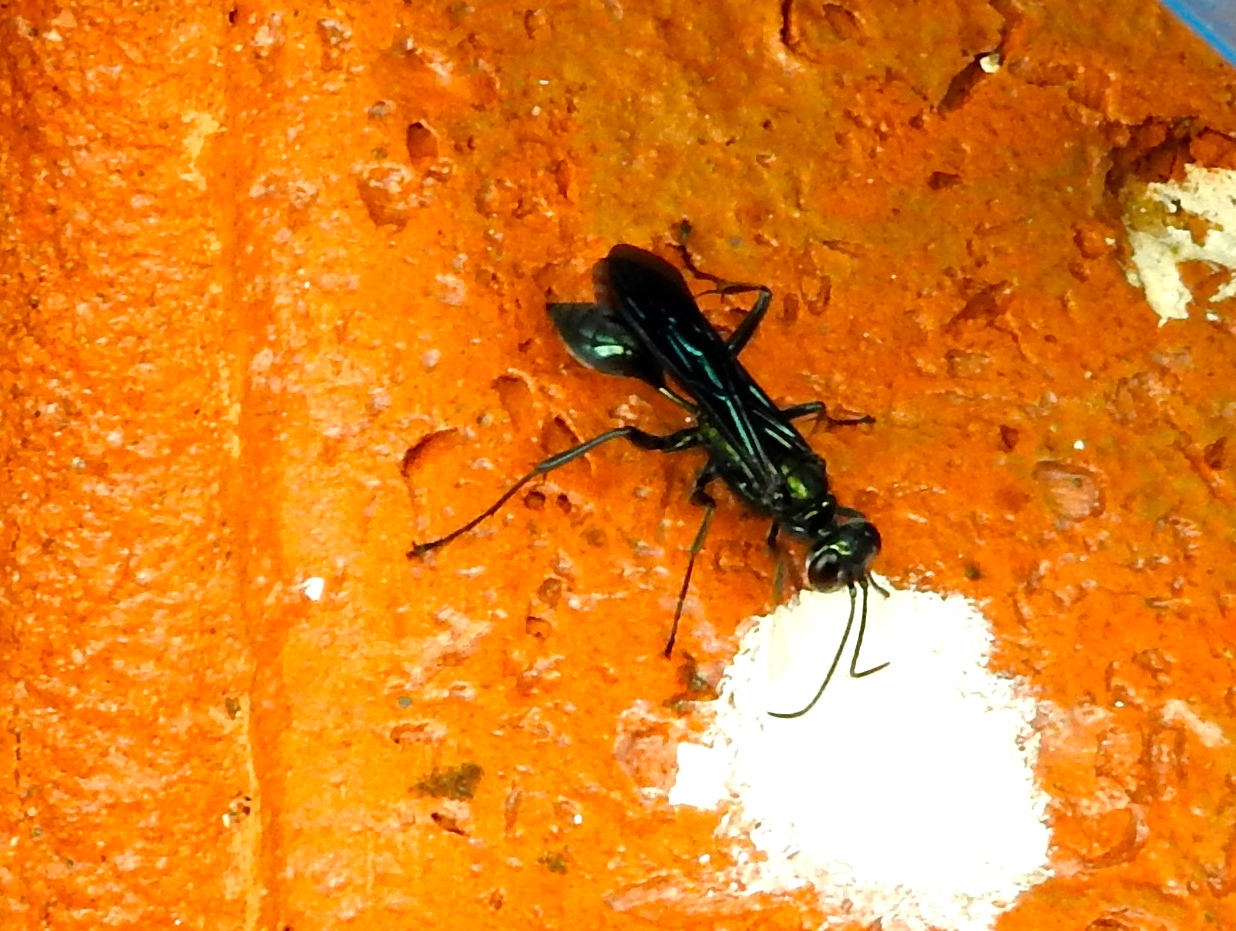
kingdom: Animalia
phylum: Arthropoda
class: Insecta
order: Hymenoptera
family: Sphecidae
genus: Chalybion
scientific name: Chalybion
